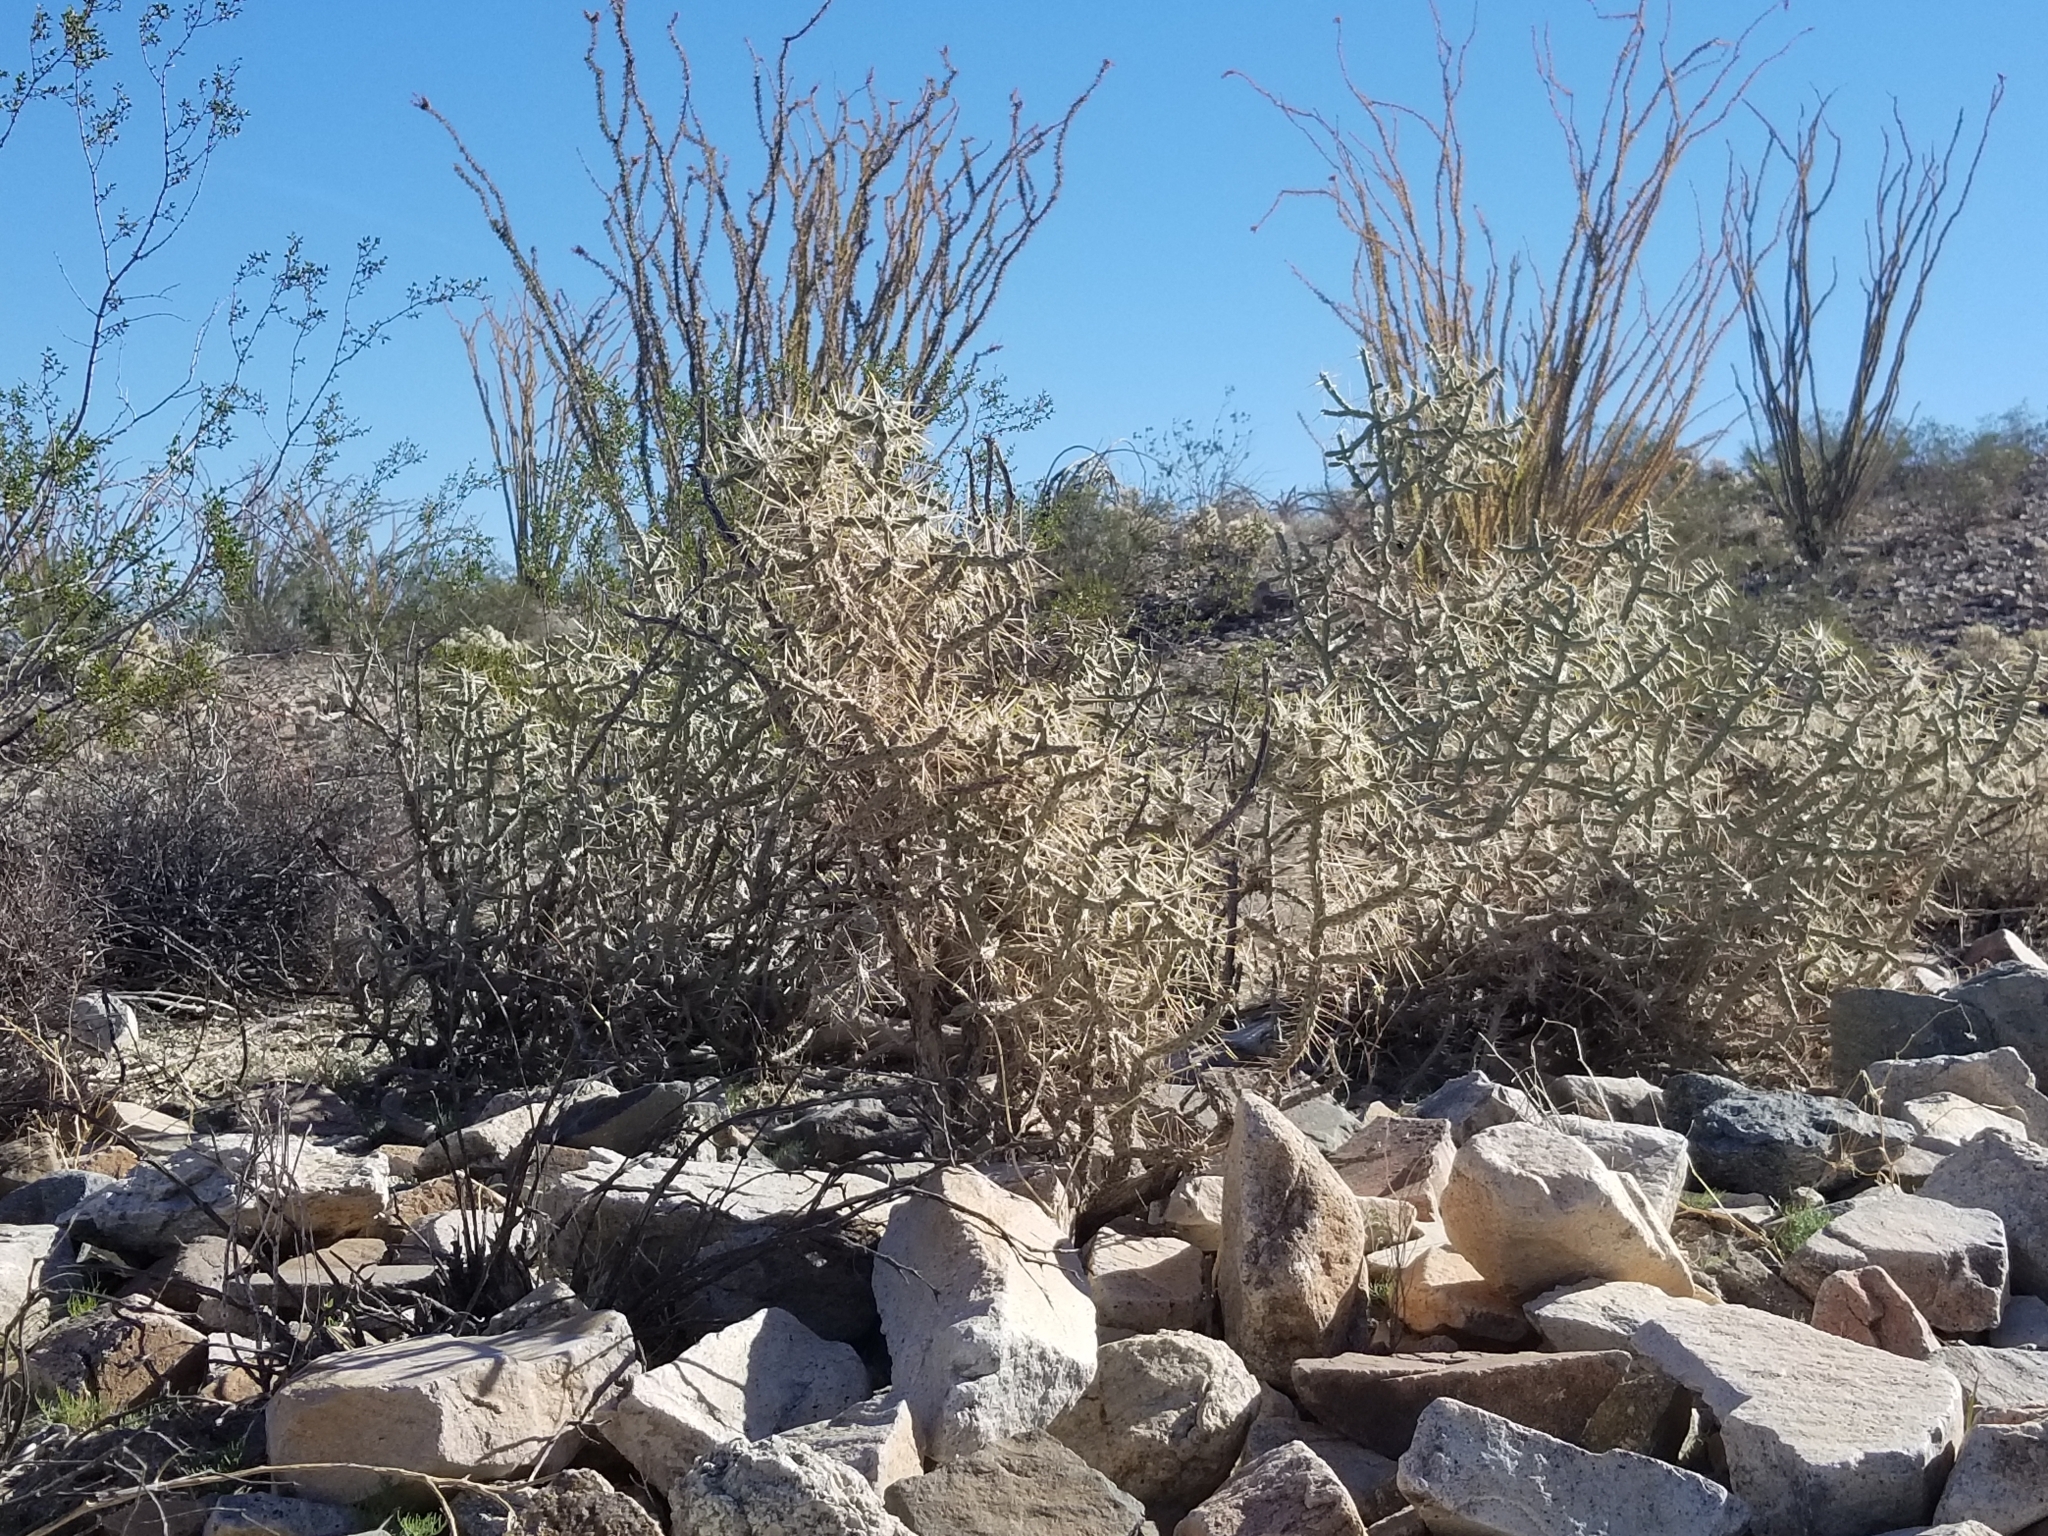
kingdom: Plantae
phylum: Tracheophyta
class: Magnoliopsida
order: Caryophyllales
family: Cactaceae
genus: Cylindropuntia
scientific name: Cylindropuntia ramosissima
